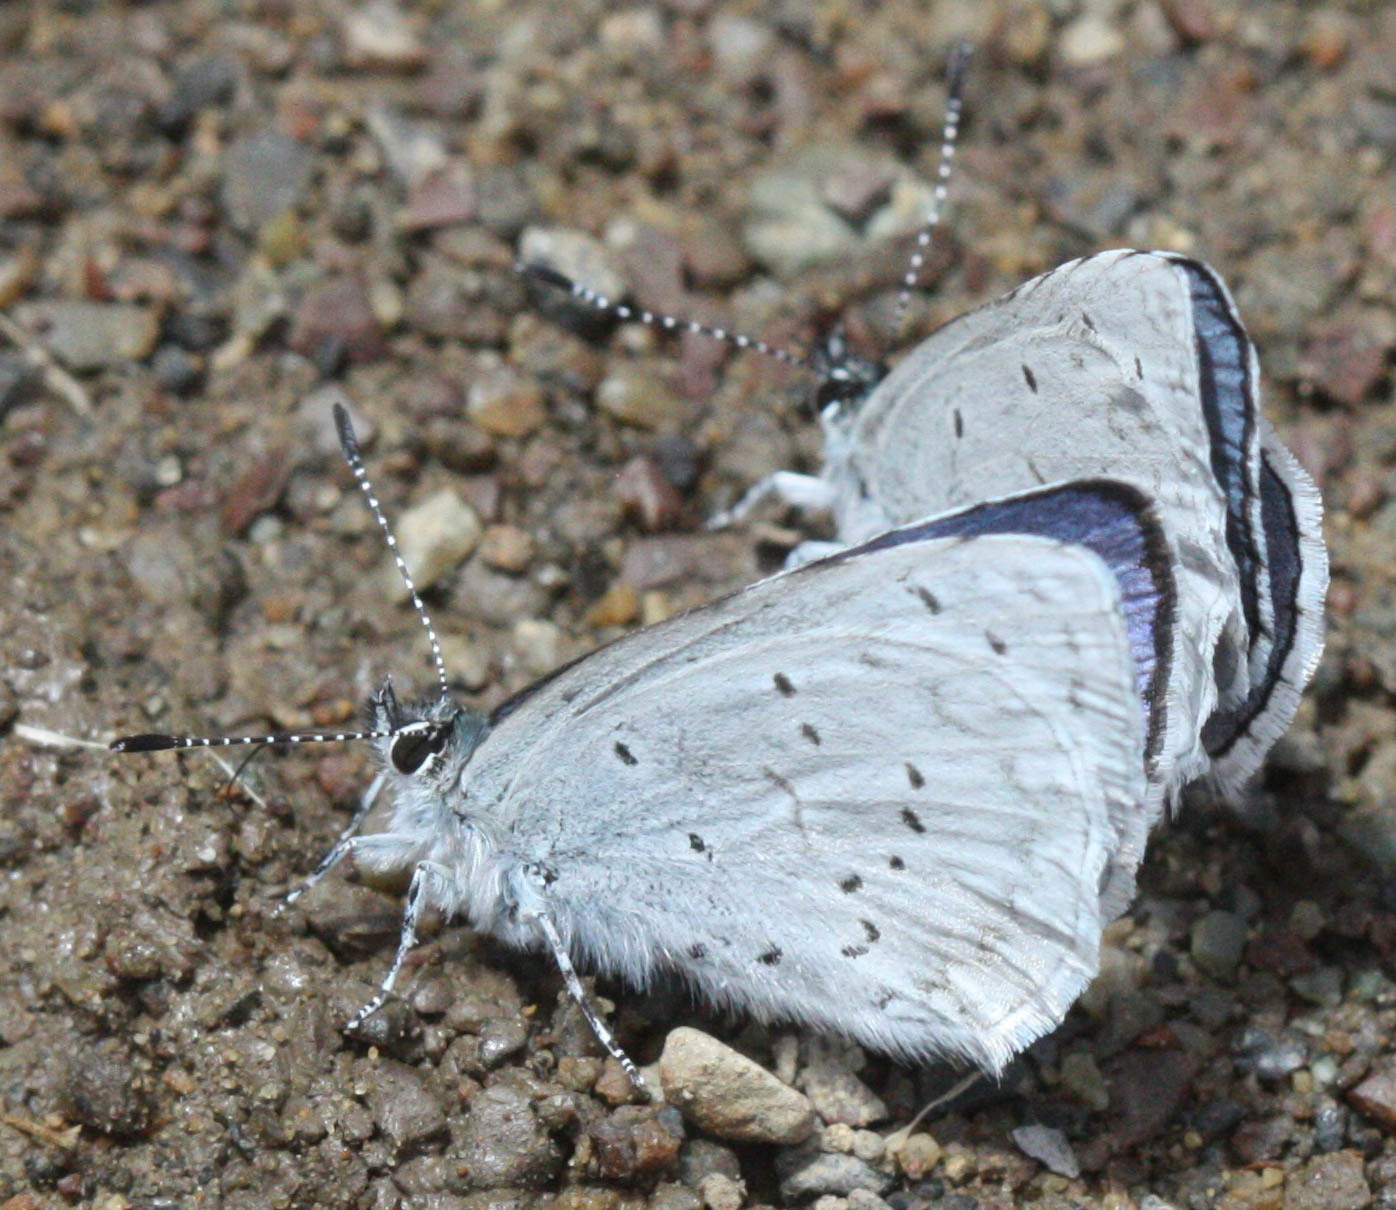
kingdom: Animalia
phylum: Arthropoda
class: Insecta
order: Lepidoptera
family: Lycaenidae
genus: Celastrina
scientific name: Celastrina ladon
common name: Spring azure
